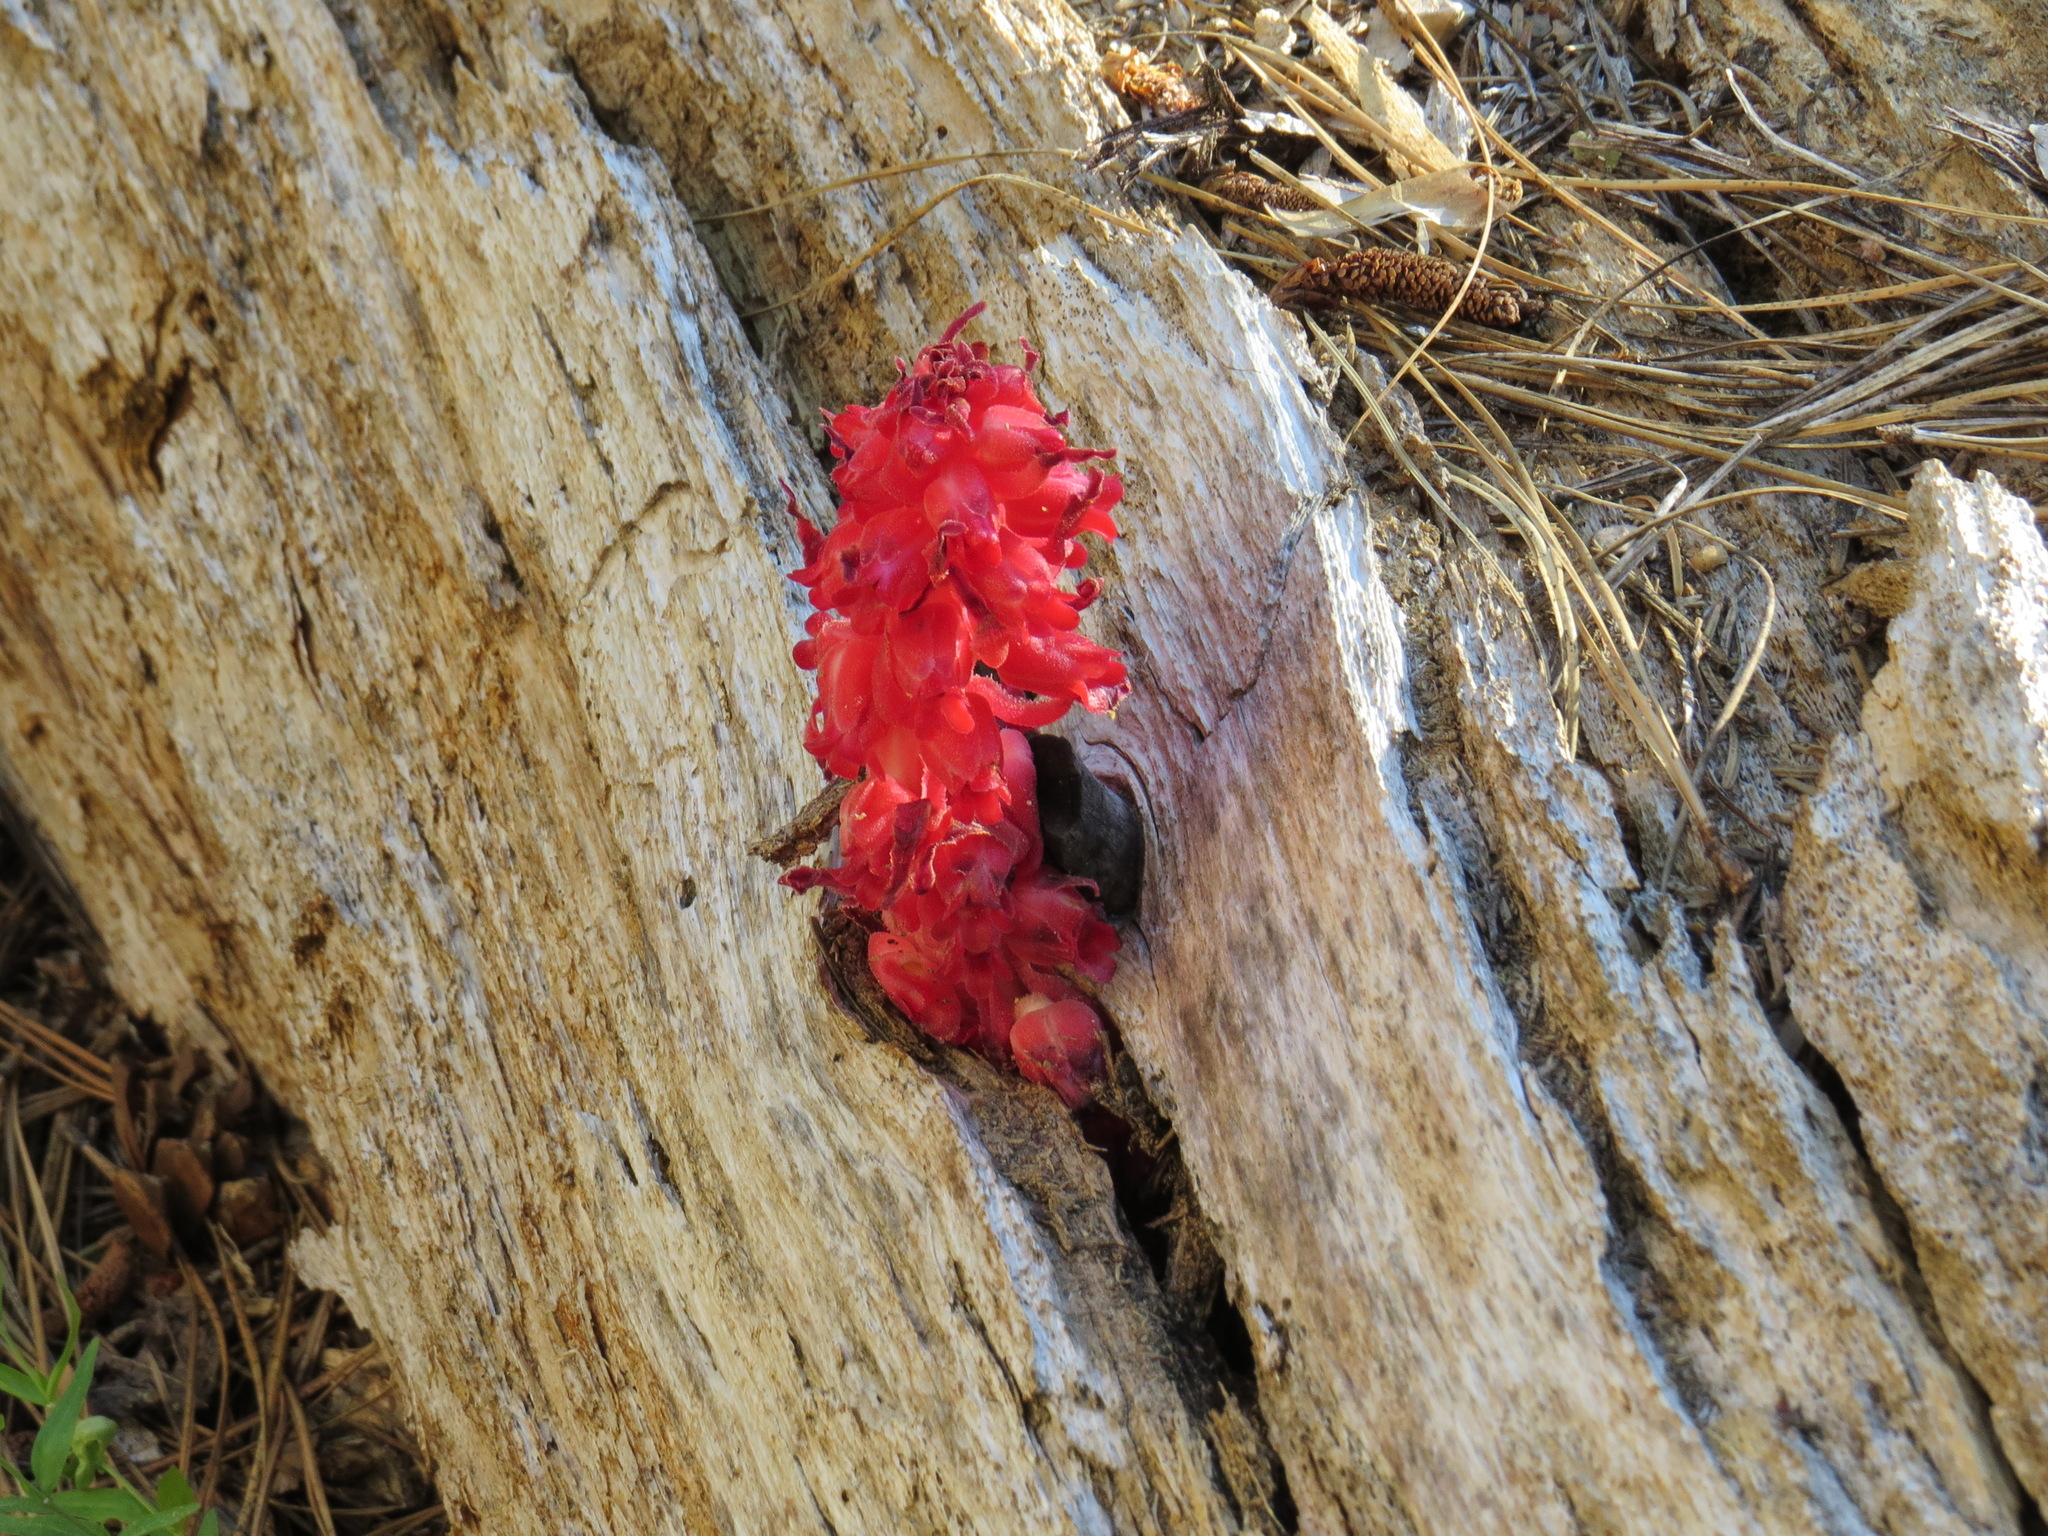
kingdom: Plantae
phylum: Tracheophyta
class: Magnoliopsida
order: Ericales
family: Ericaceae
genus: Sarcodes
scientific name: Sarcodes sanguinea
